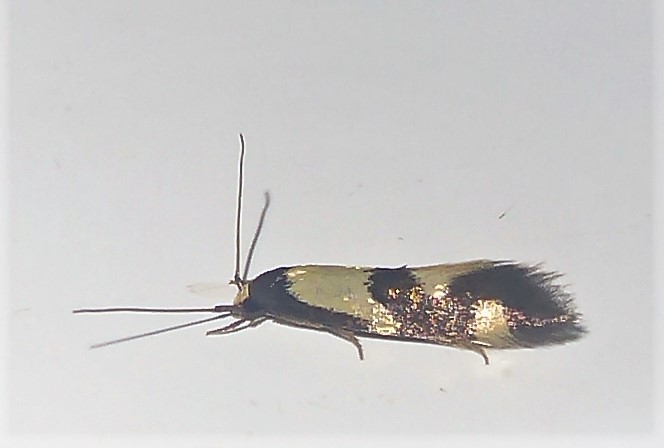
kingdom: Animalia
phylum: Arthropoda
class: Insecta
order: Lepidoptera
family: Tineidae
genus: Opogona
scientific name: Opogona comptella
